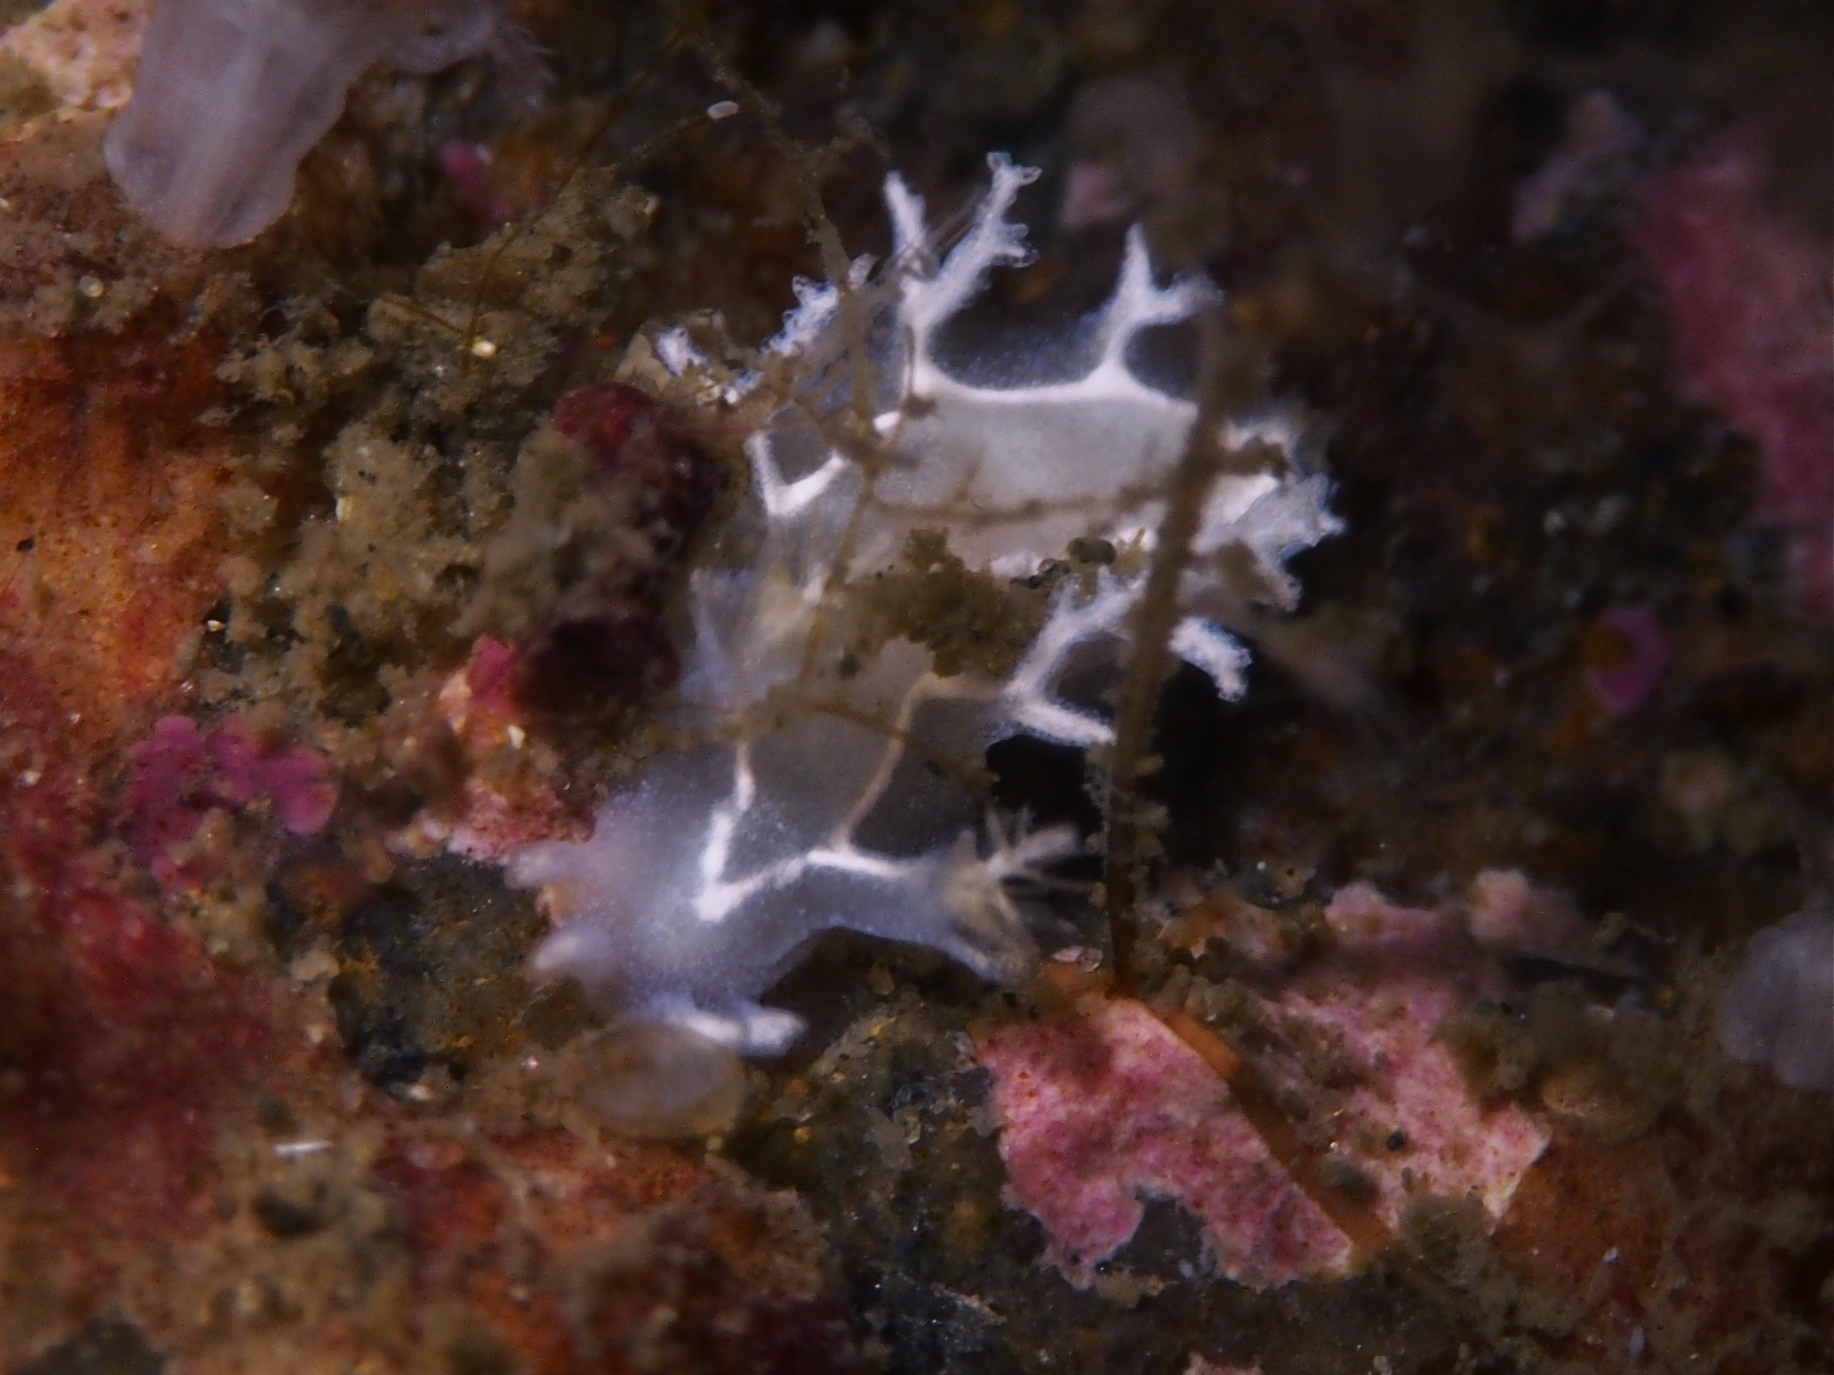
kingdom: Animalia
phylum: Mollusca
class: Gastropoda
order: Nudibranchia
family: Tritoniidae
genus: Duvaucelia
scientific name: Duvaucelia lineata
